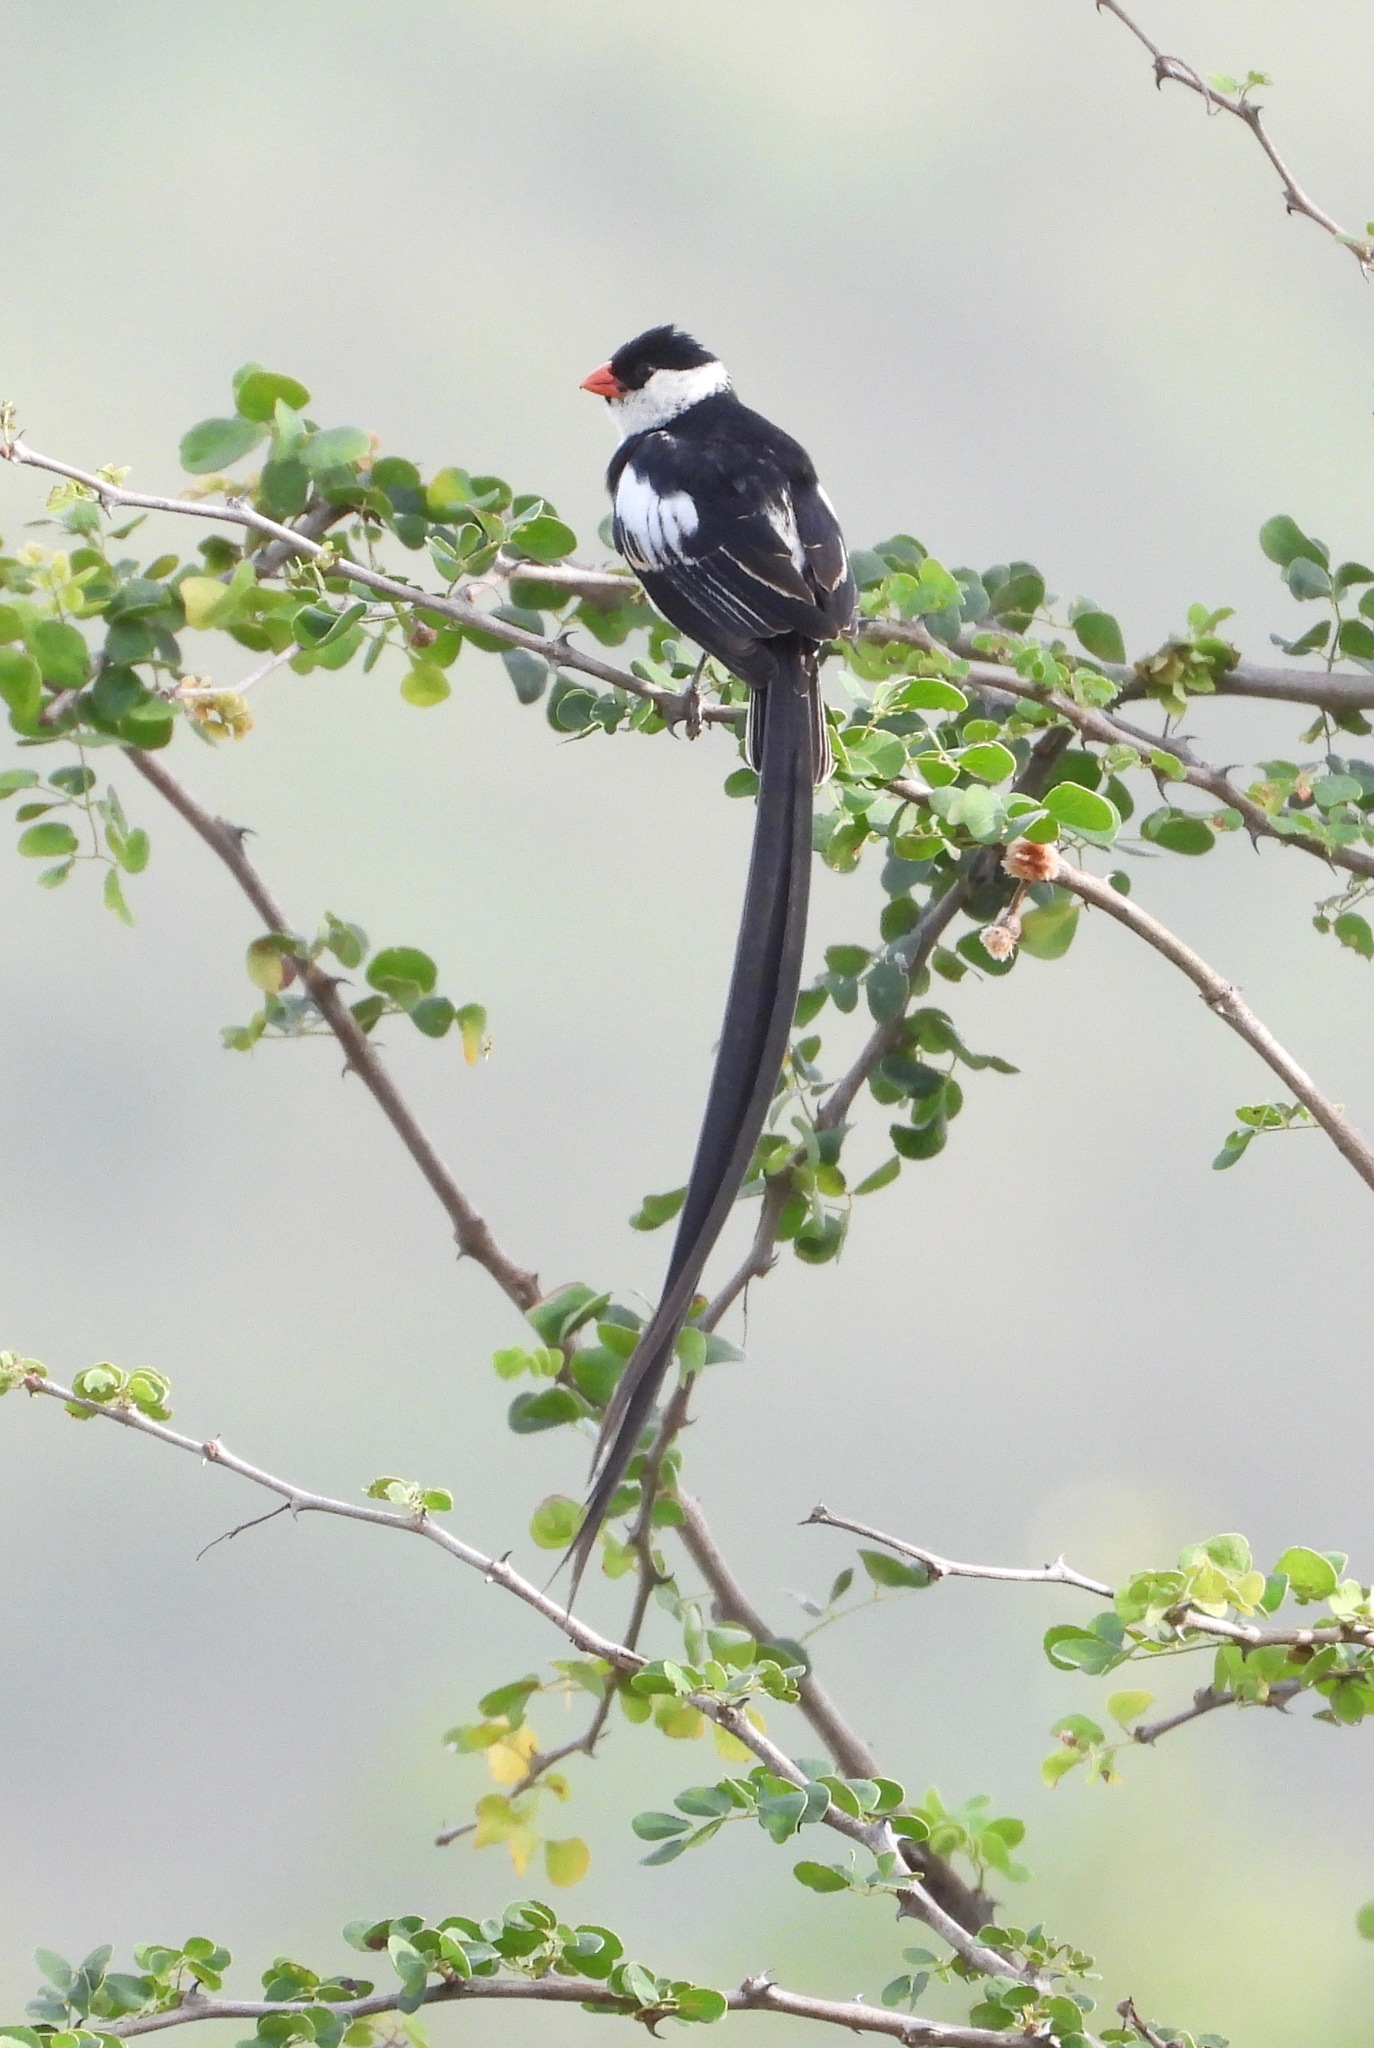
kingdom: Animalia
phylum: Chordata
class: Aves
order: Passeriformes
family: Viduidae
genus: Vidua
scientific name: Vidua macroura
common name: Pin-tailed whydah
